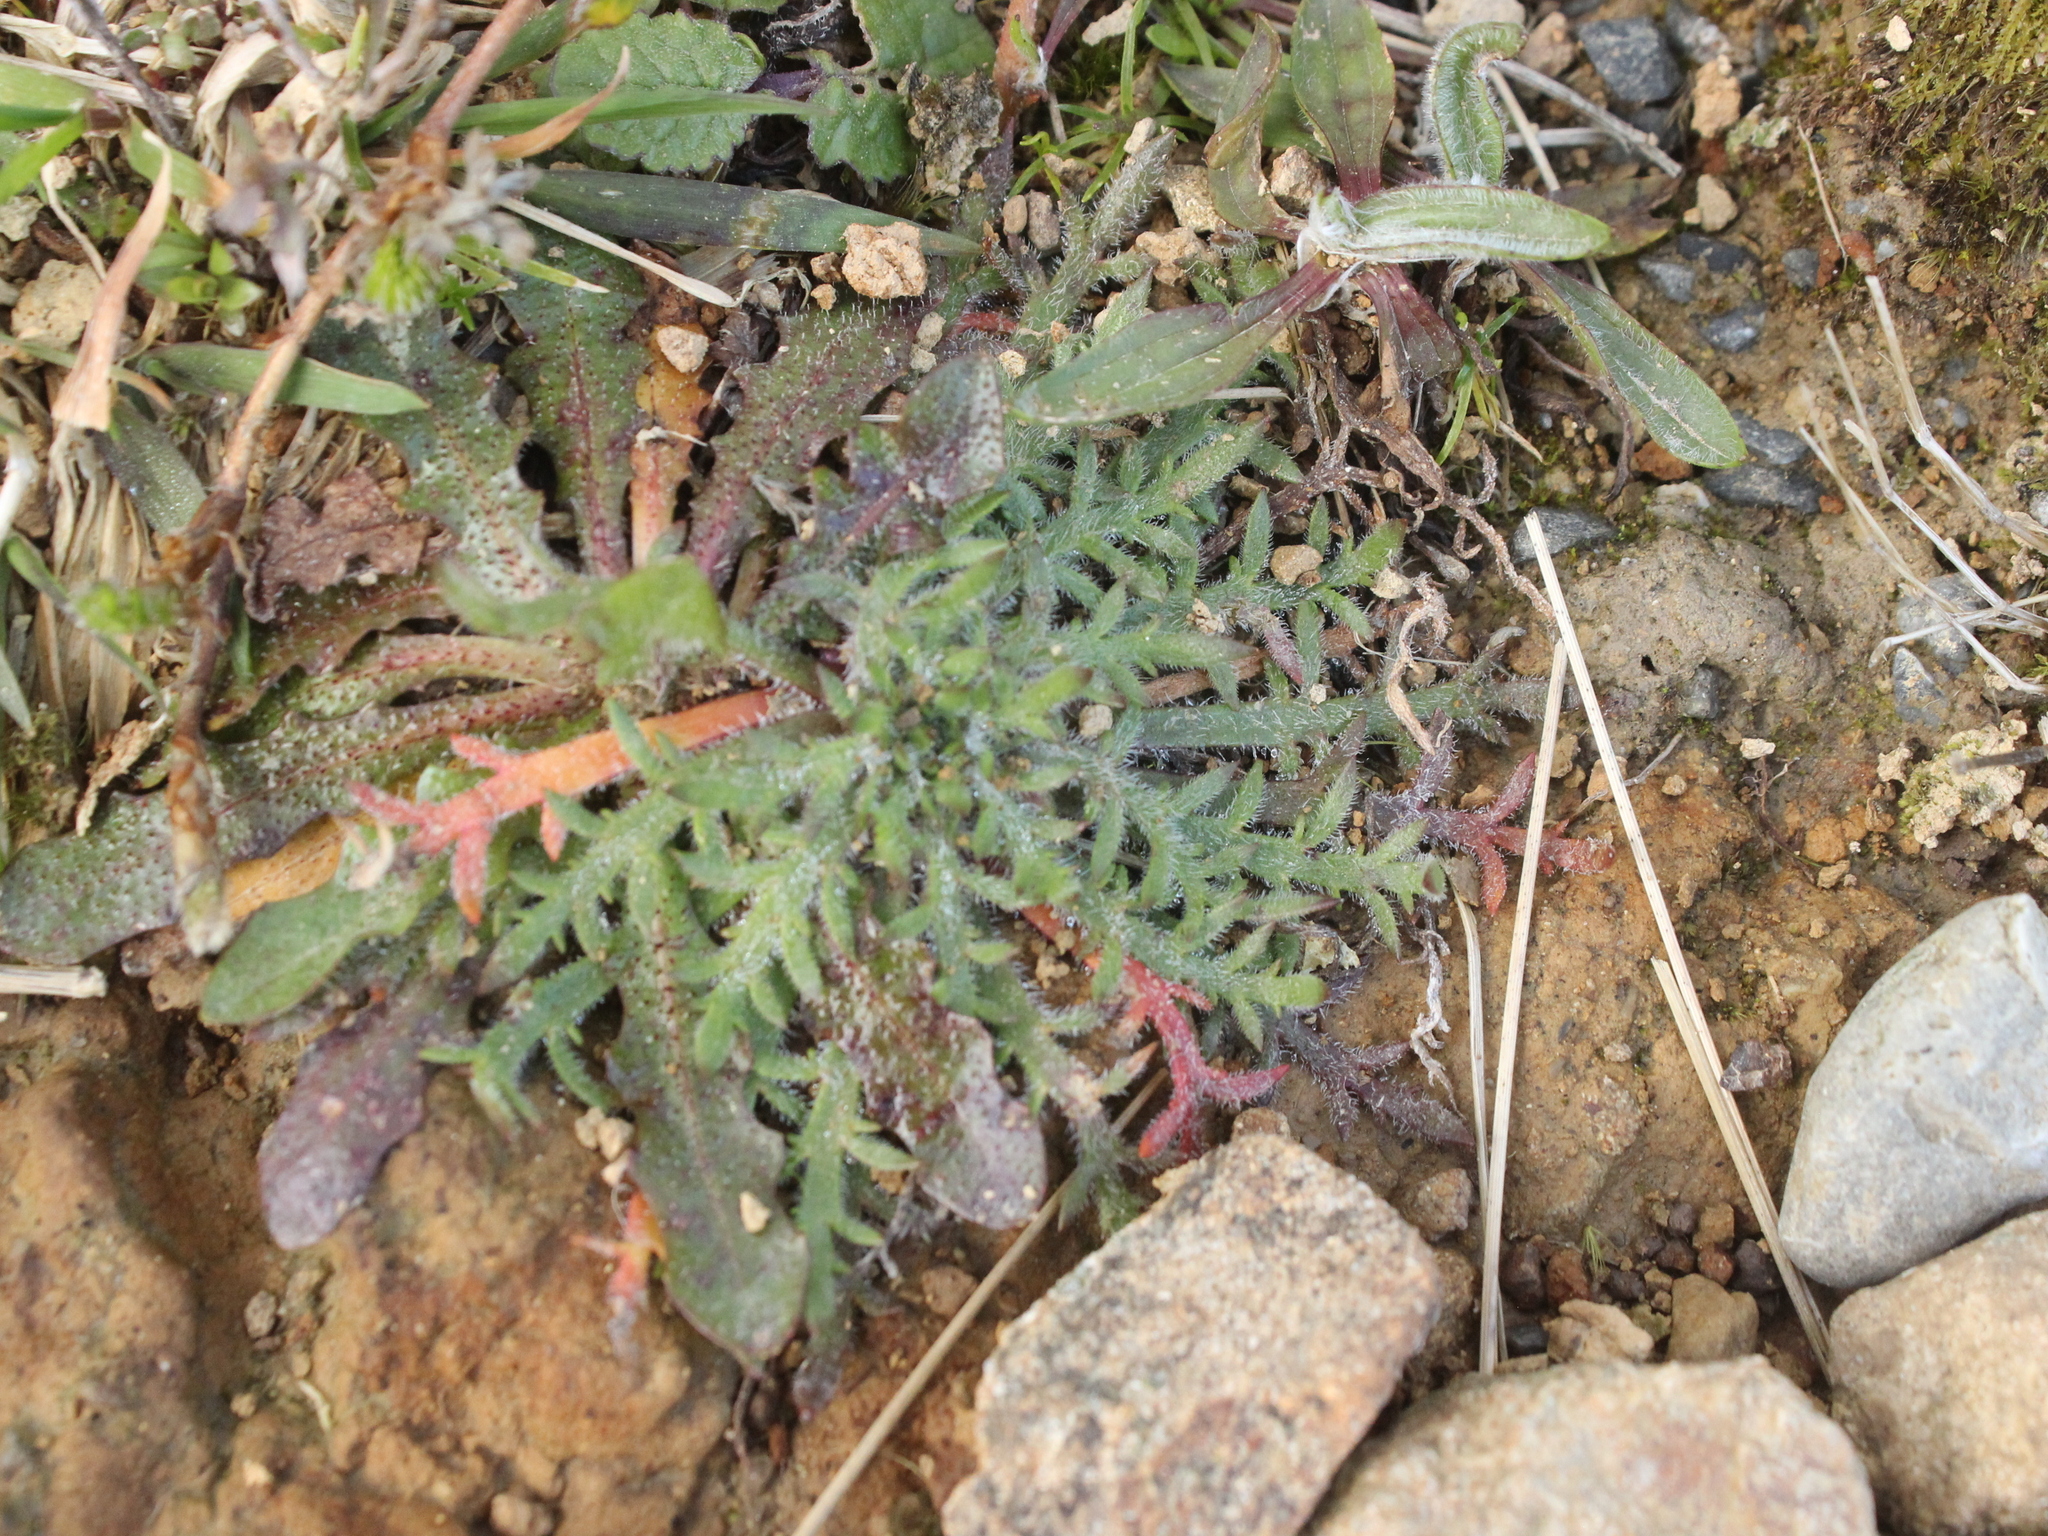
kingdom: Plantae
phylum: Tracheophyta
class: Magnoliopsida
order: Lamiales
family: Plantaginaceae
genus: Plantago
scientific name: Plantago coronopus
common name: Buck's-horn plantain
